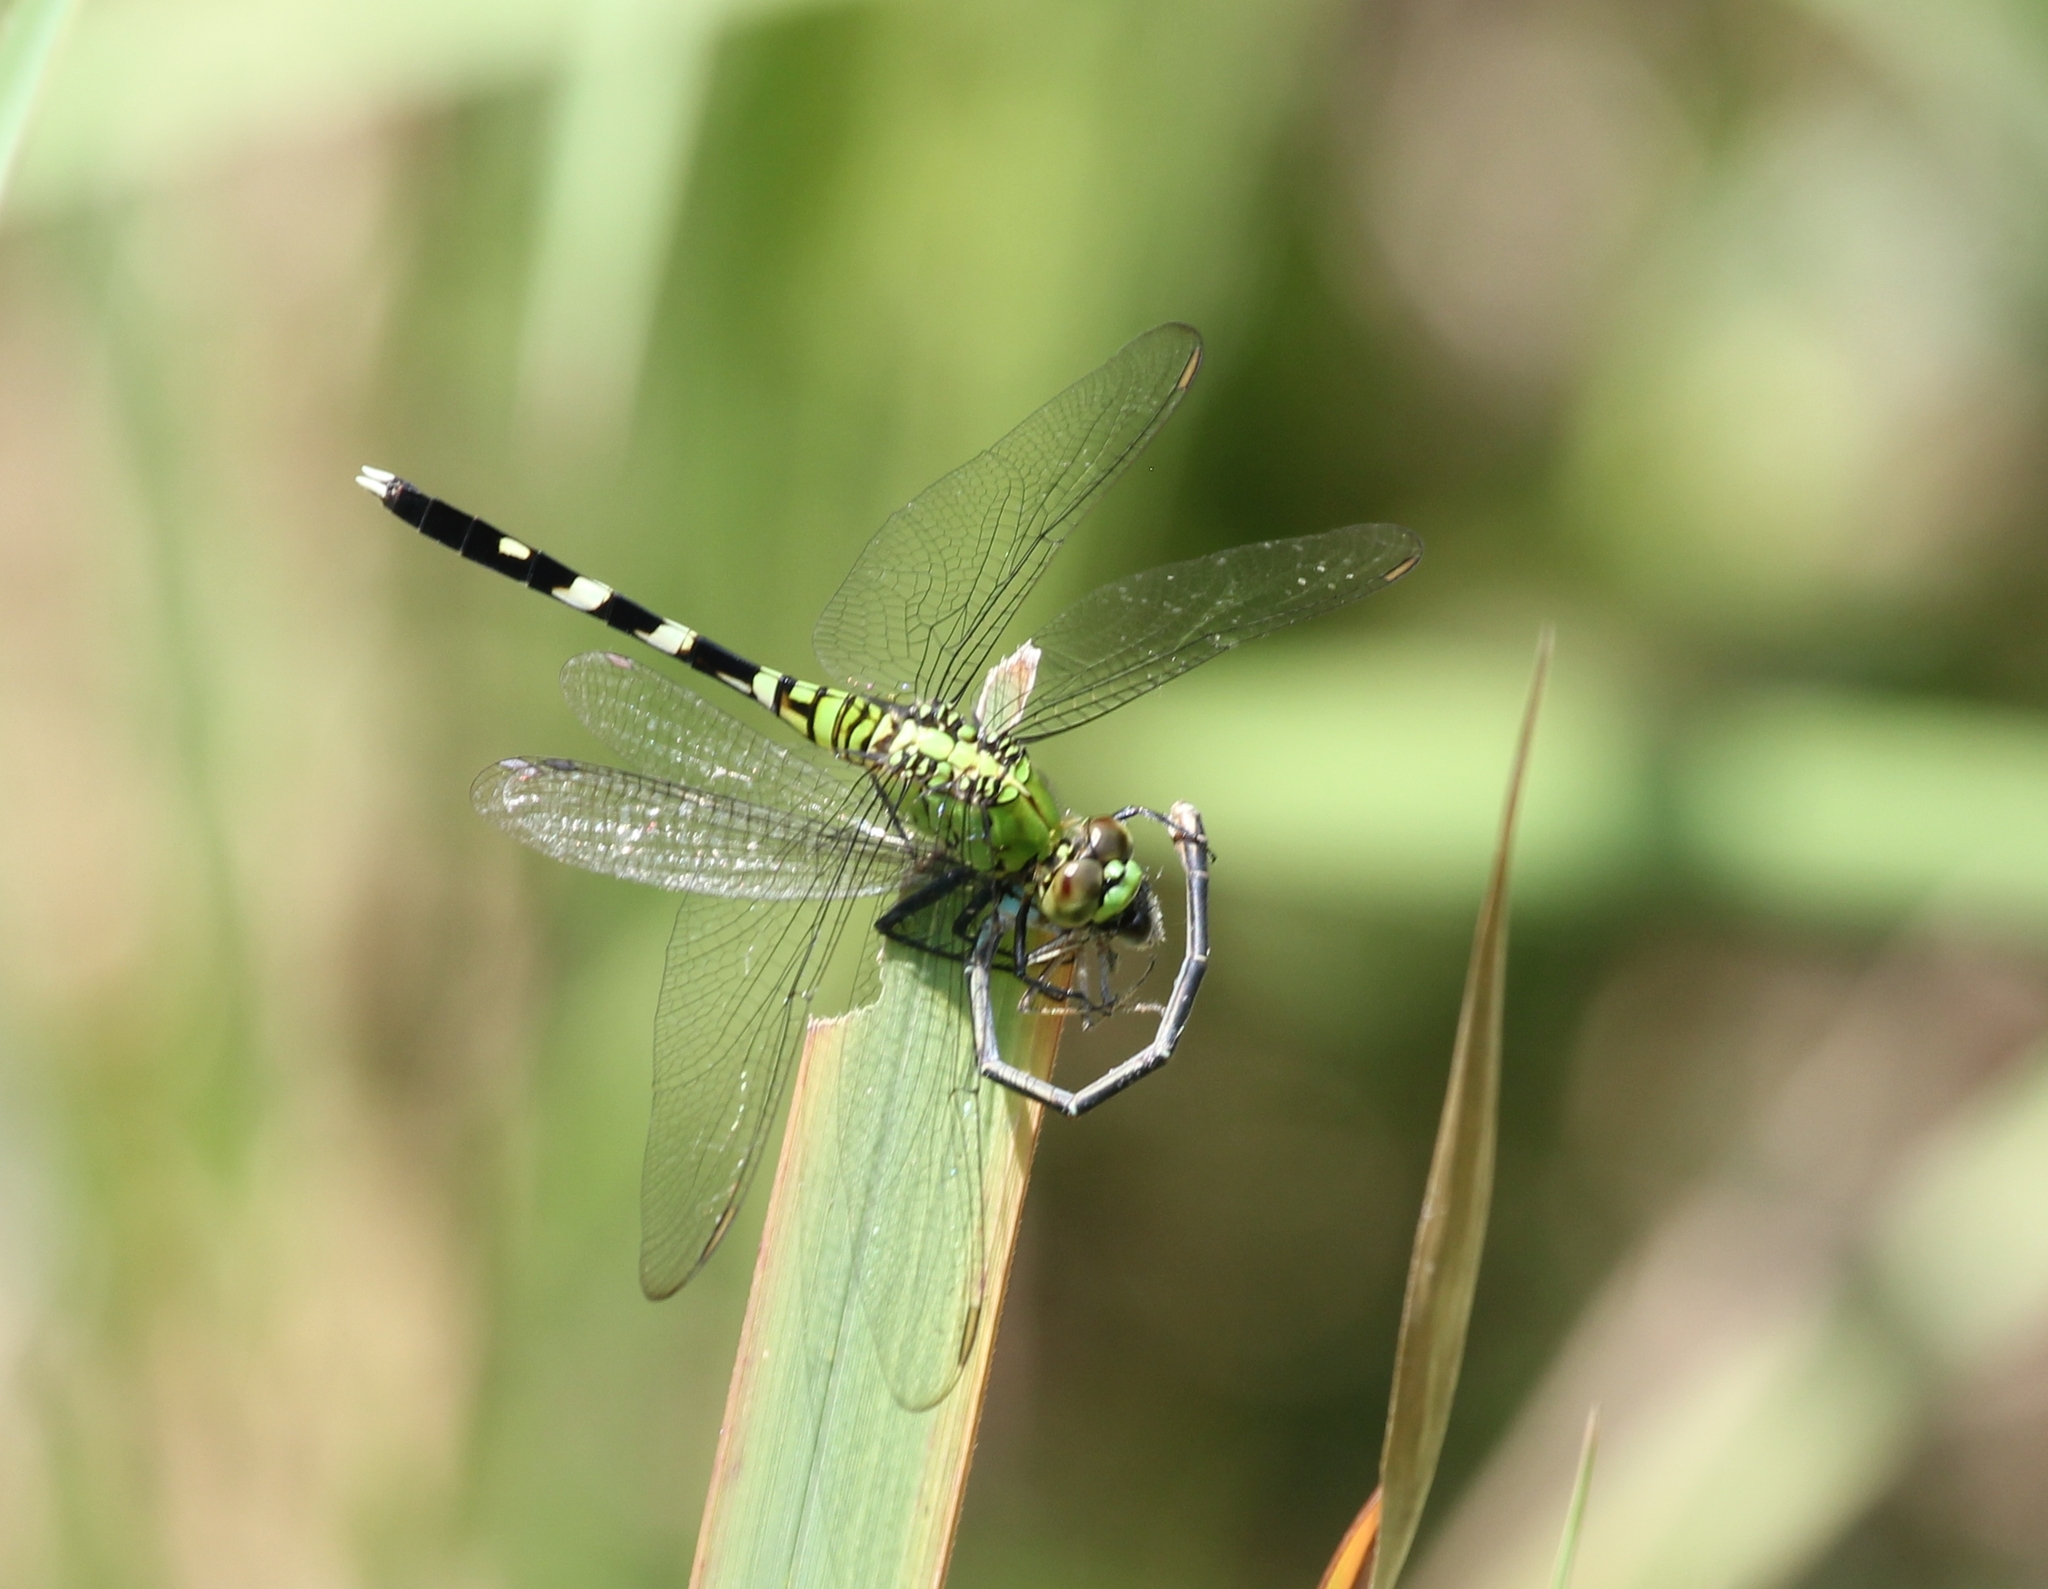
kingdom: Animalia
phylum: Arthropoda
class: Insecta
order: Odonata
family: Libellulidae
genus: Erythemis
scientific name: Erythemis simplicicollis
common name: Eastern pondhawk
